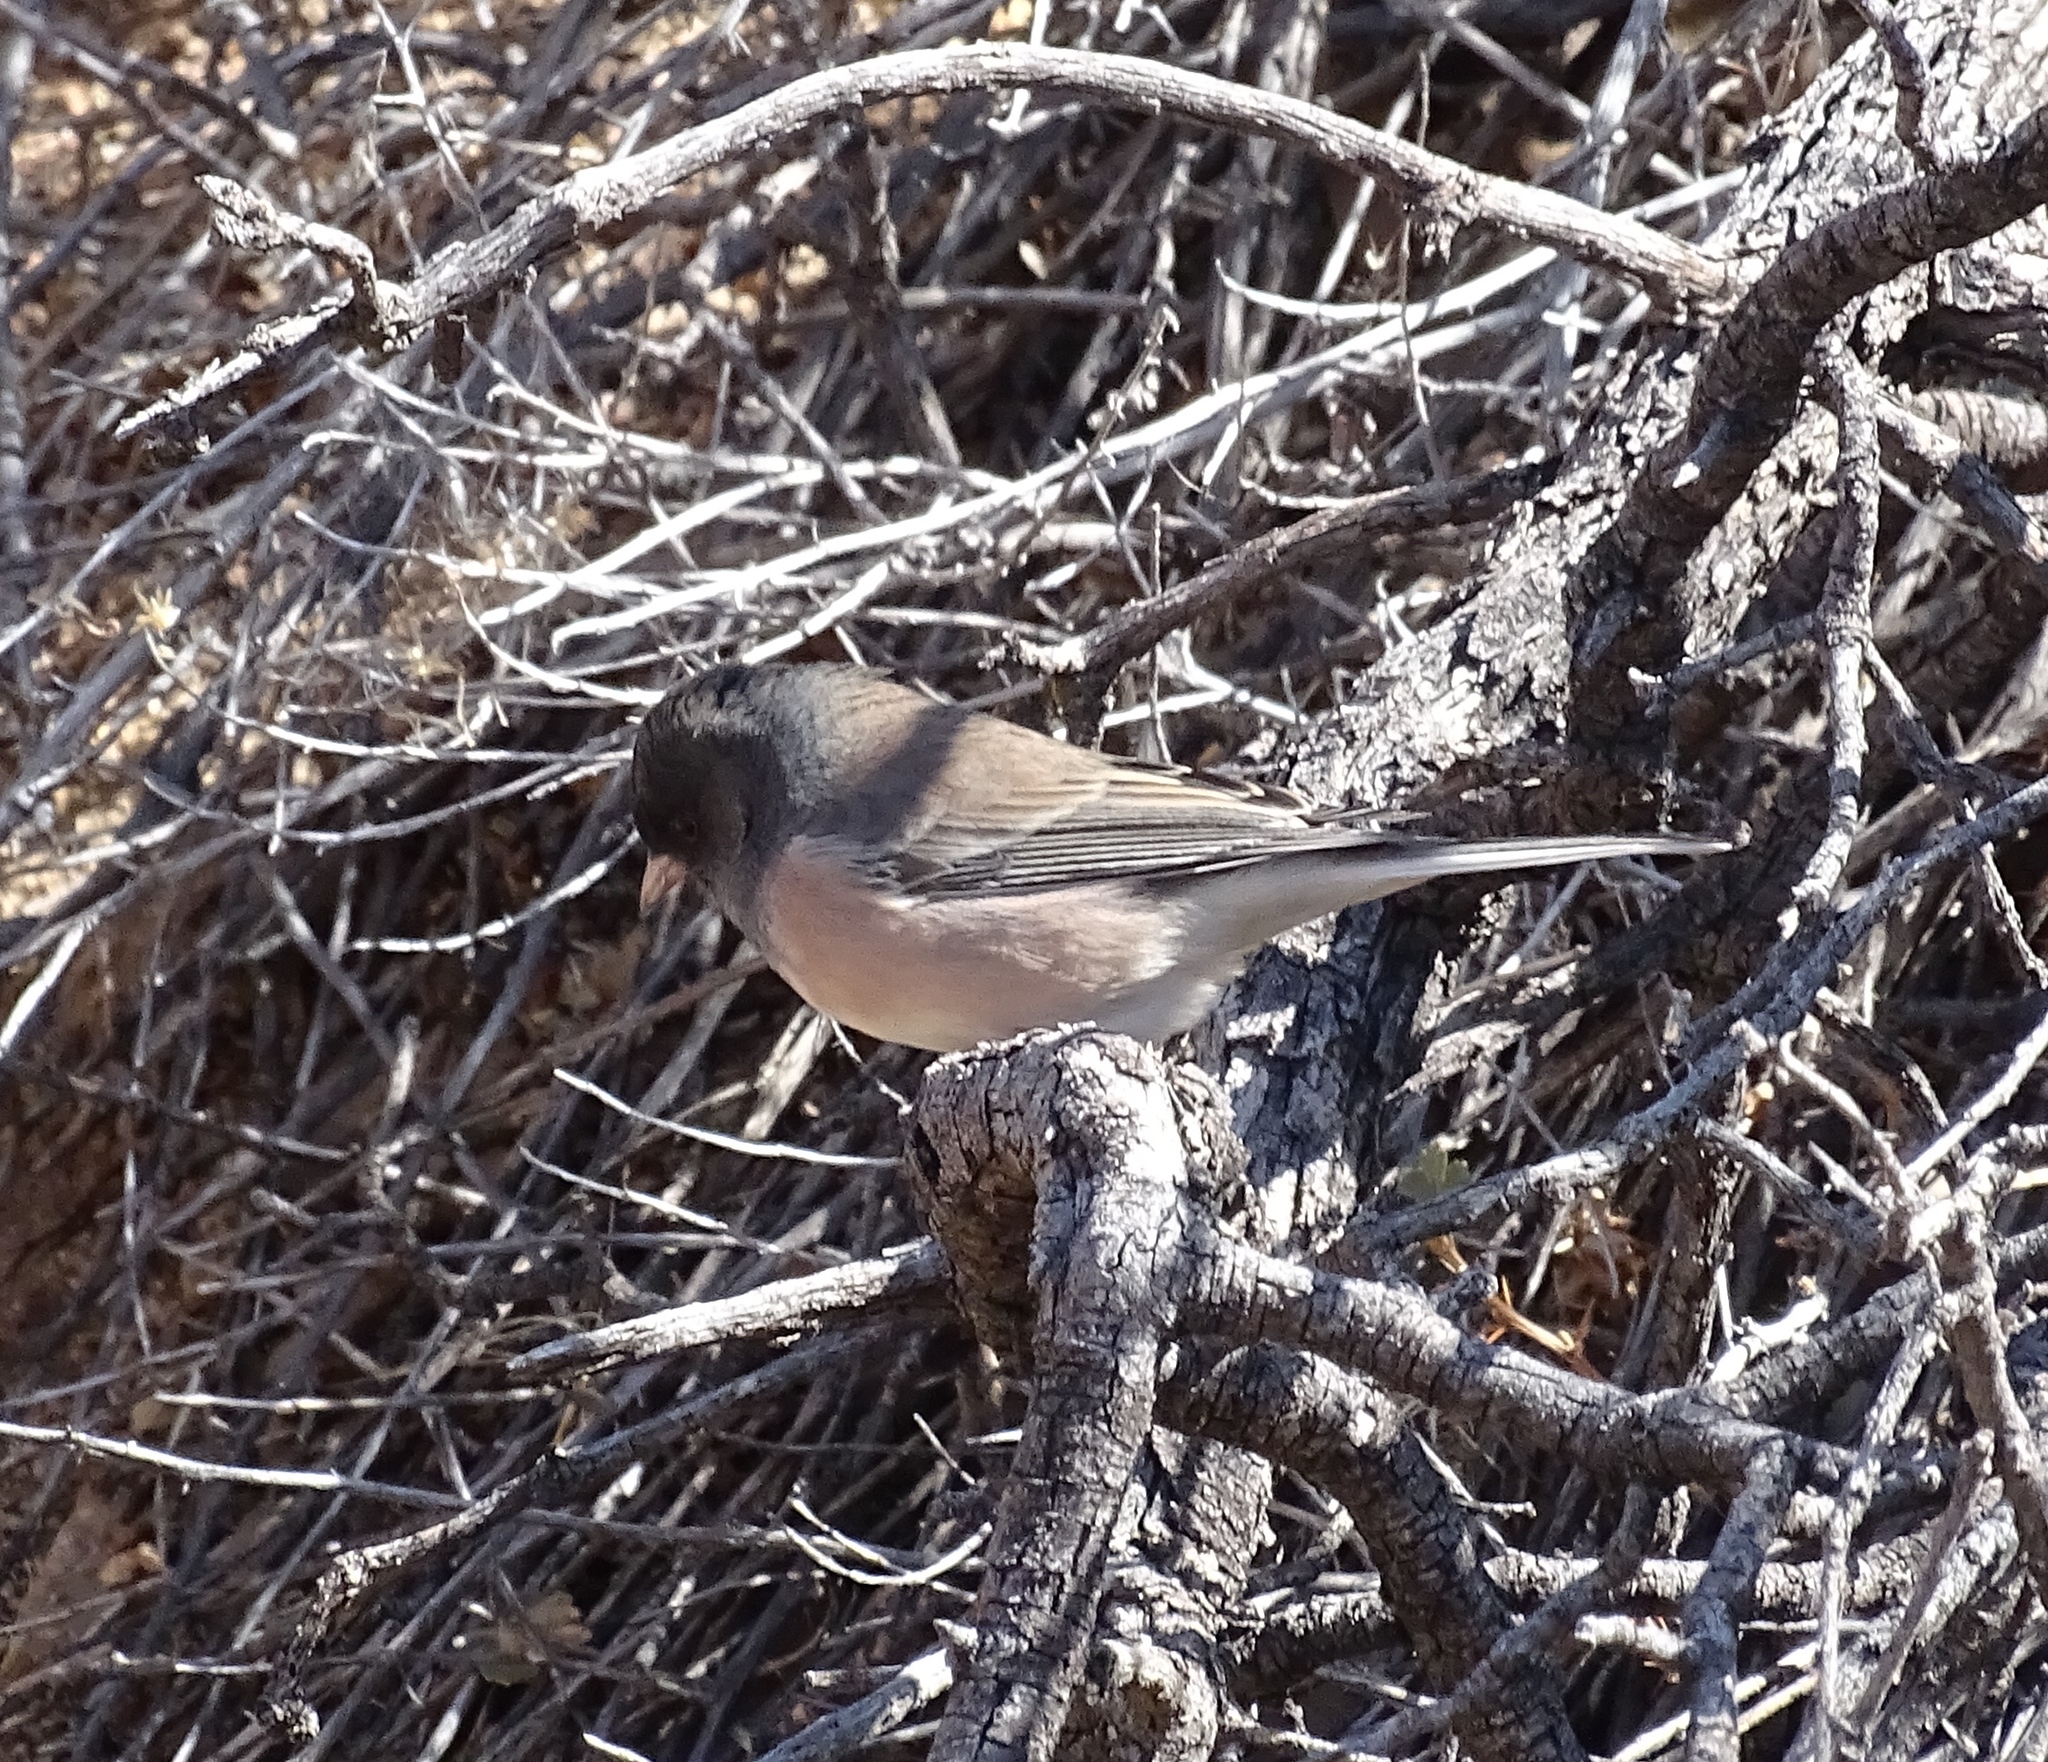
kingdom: Animalia
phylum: Chordata
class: Aves
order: Passeriformes
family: Passerellidae
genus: Junco
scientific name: Junco hyemalis
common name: Dark-eyed junco
